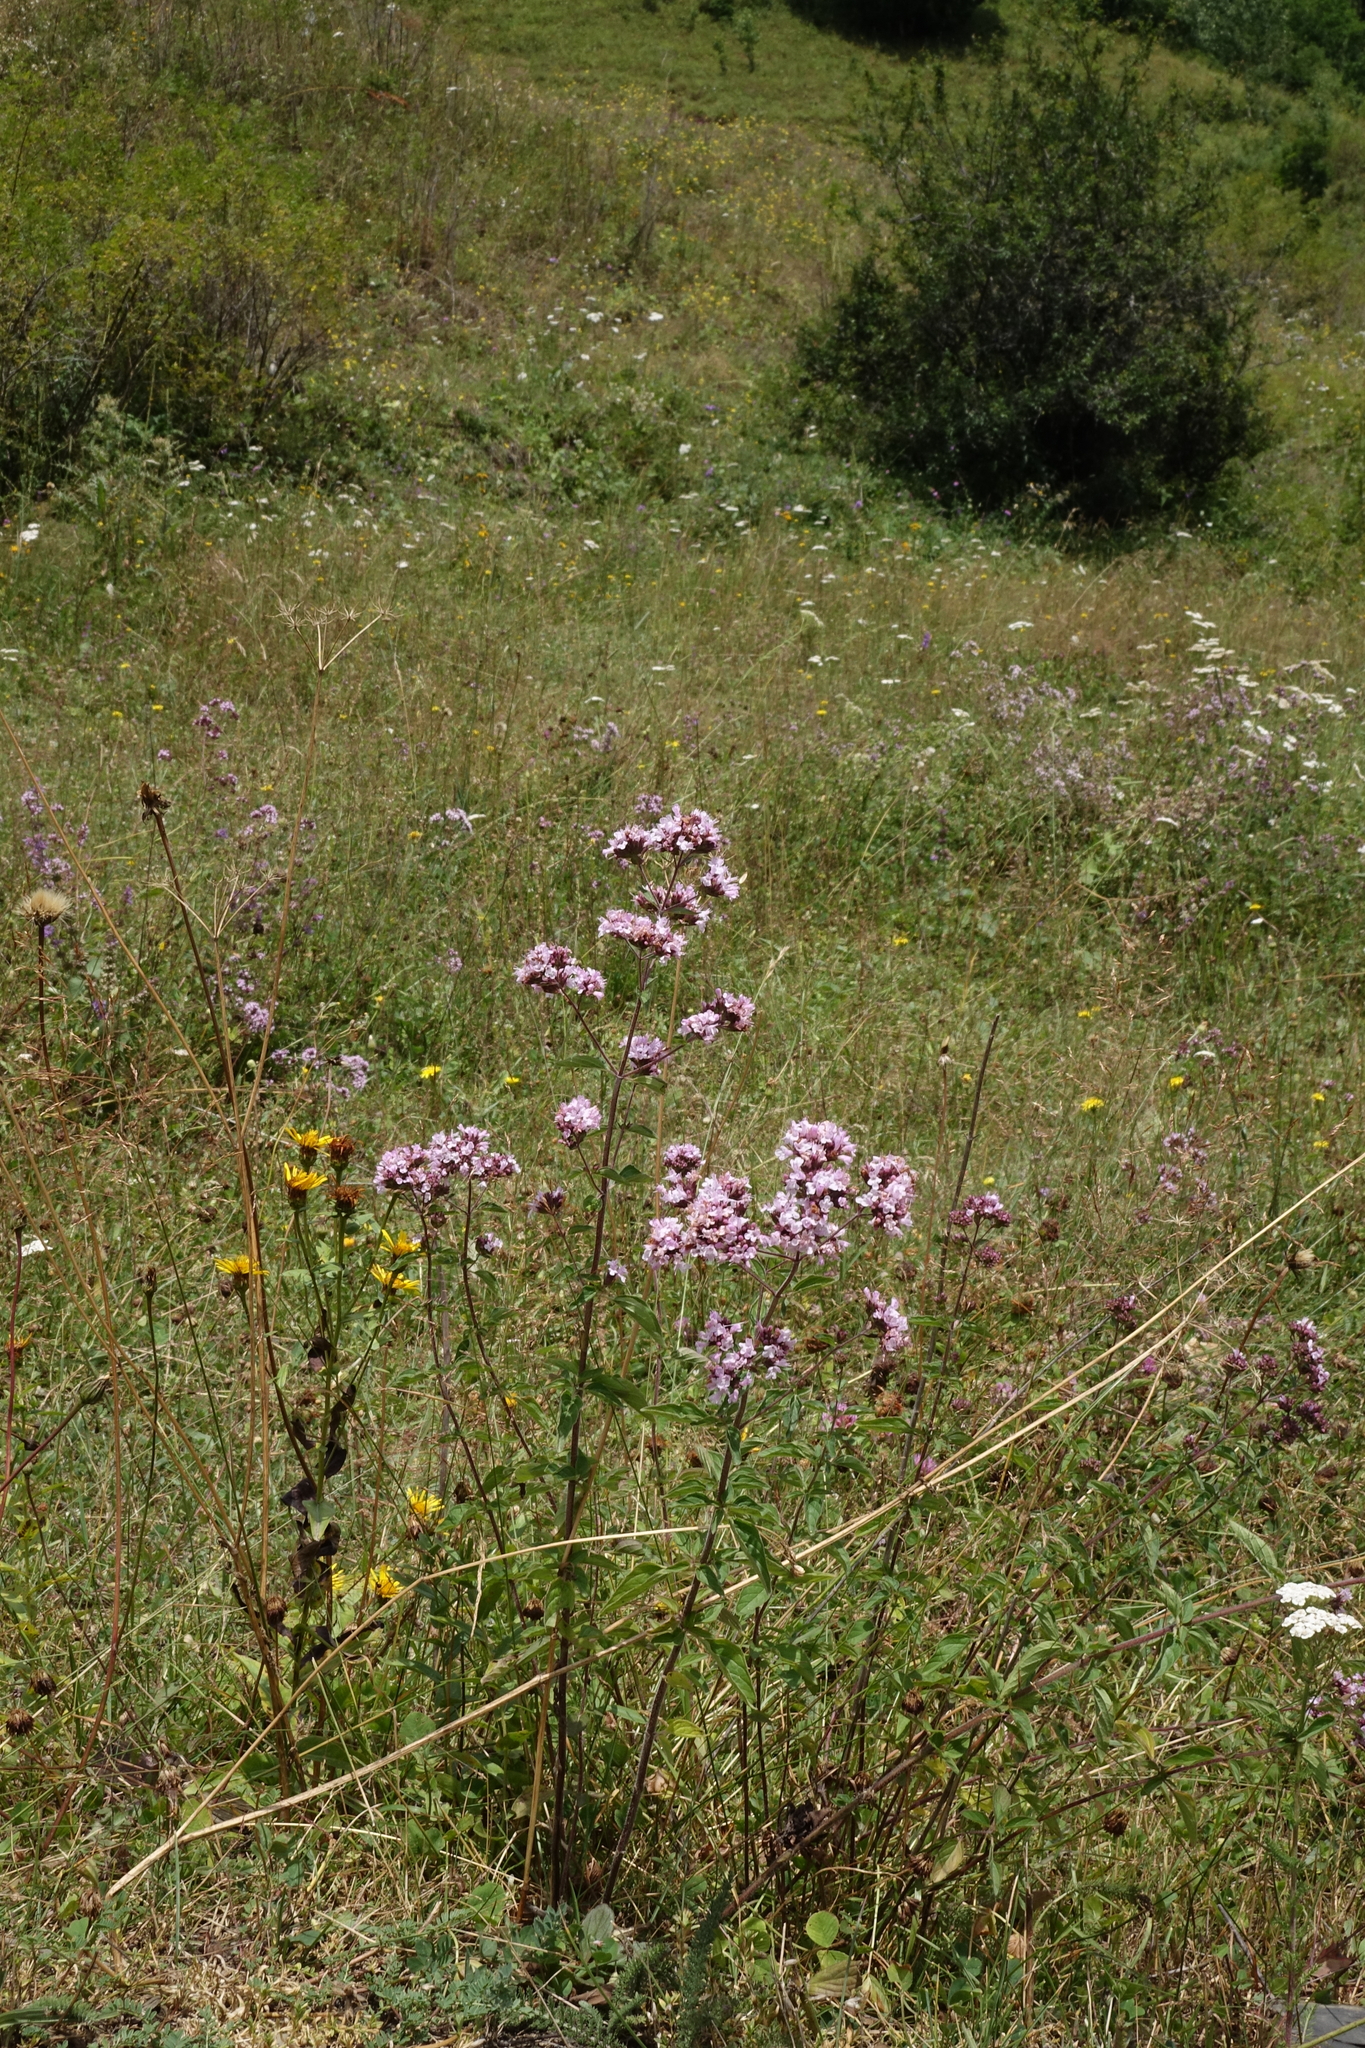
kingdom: Plantae
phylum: Tracheophyta
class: Magnoliopsida
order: Lamiales
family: Lamiaceae
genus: Origanum
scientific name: Origanum vulgare
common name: Wild marjoram
